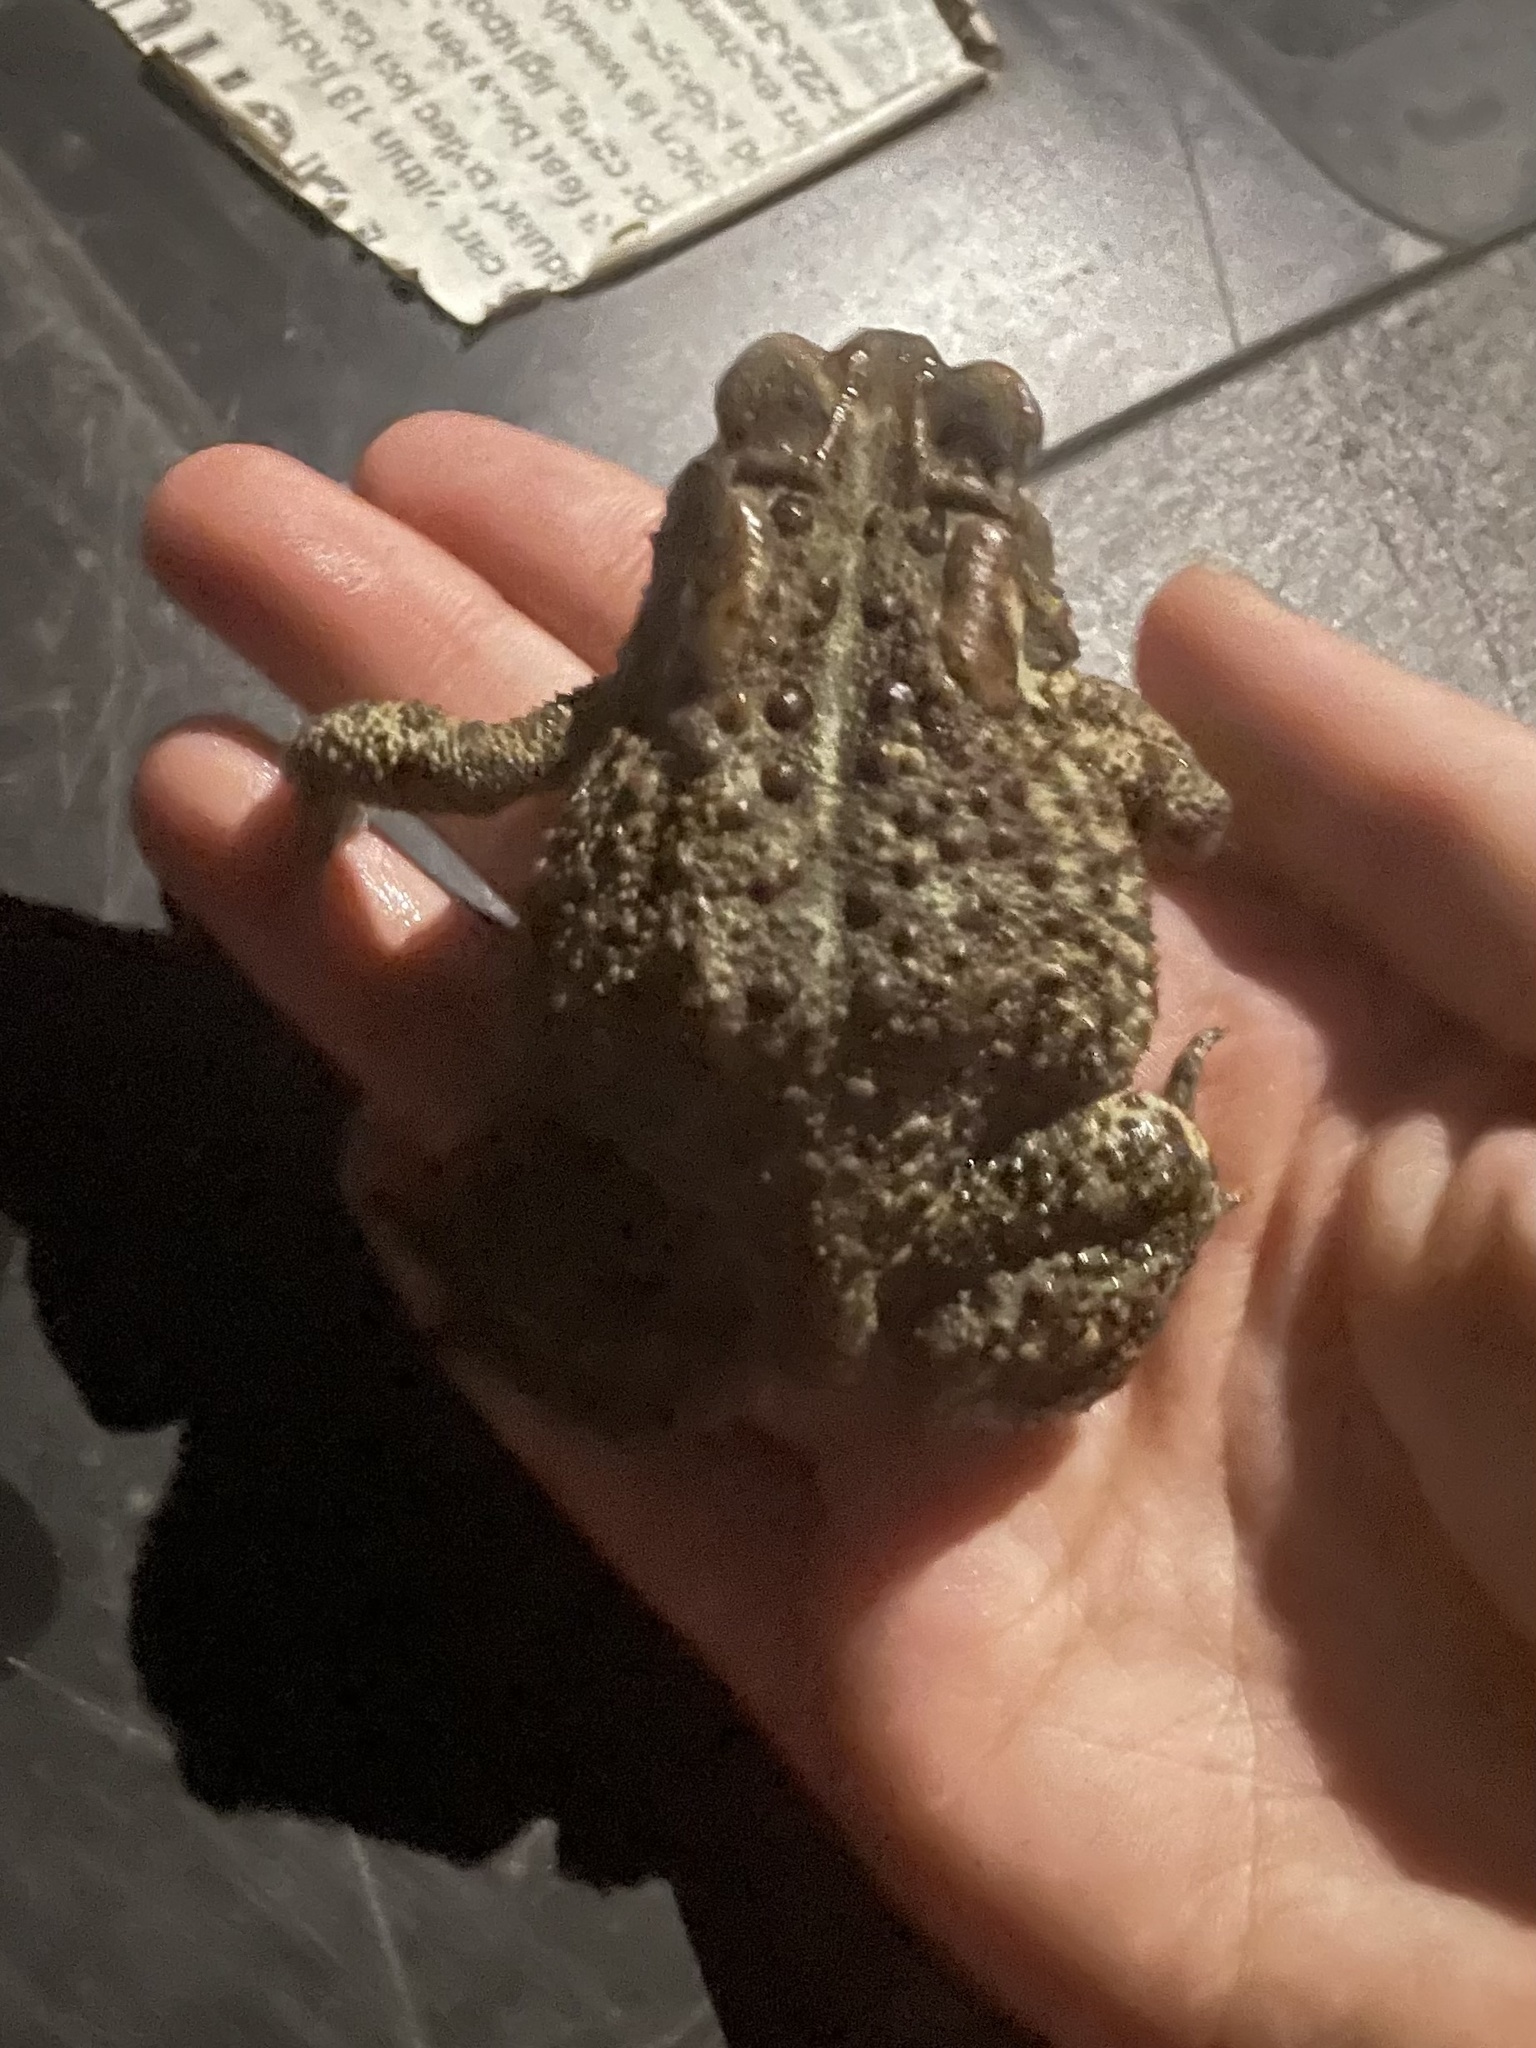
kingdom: Animalia
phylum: Chordata
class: Amphibia
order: Anura
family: Bufonidae
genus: Anaxyrus
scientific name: Anaxyrus americanus
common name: American toad
